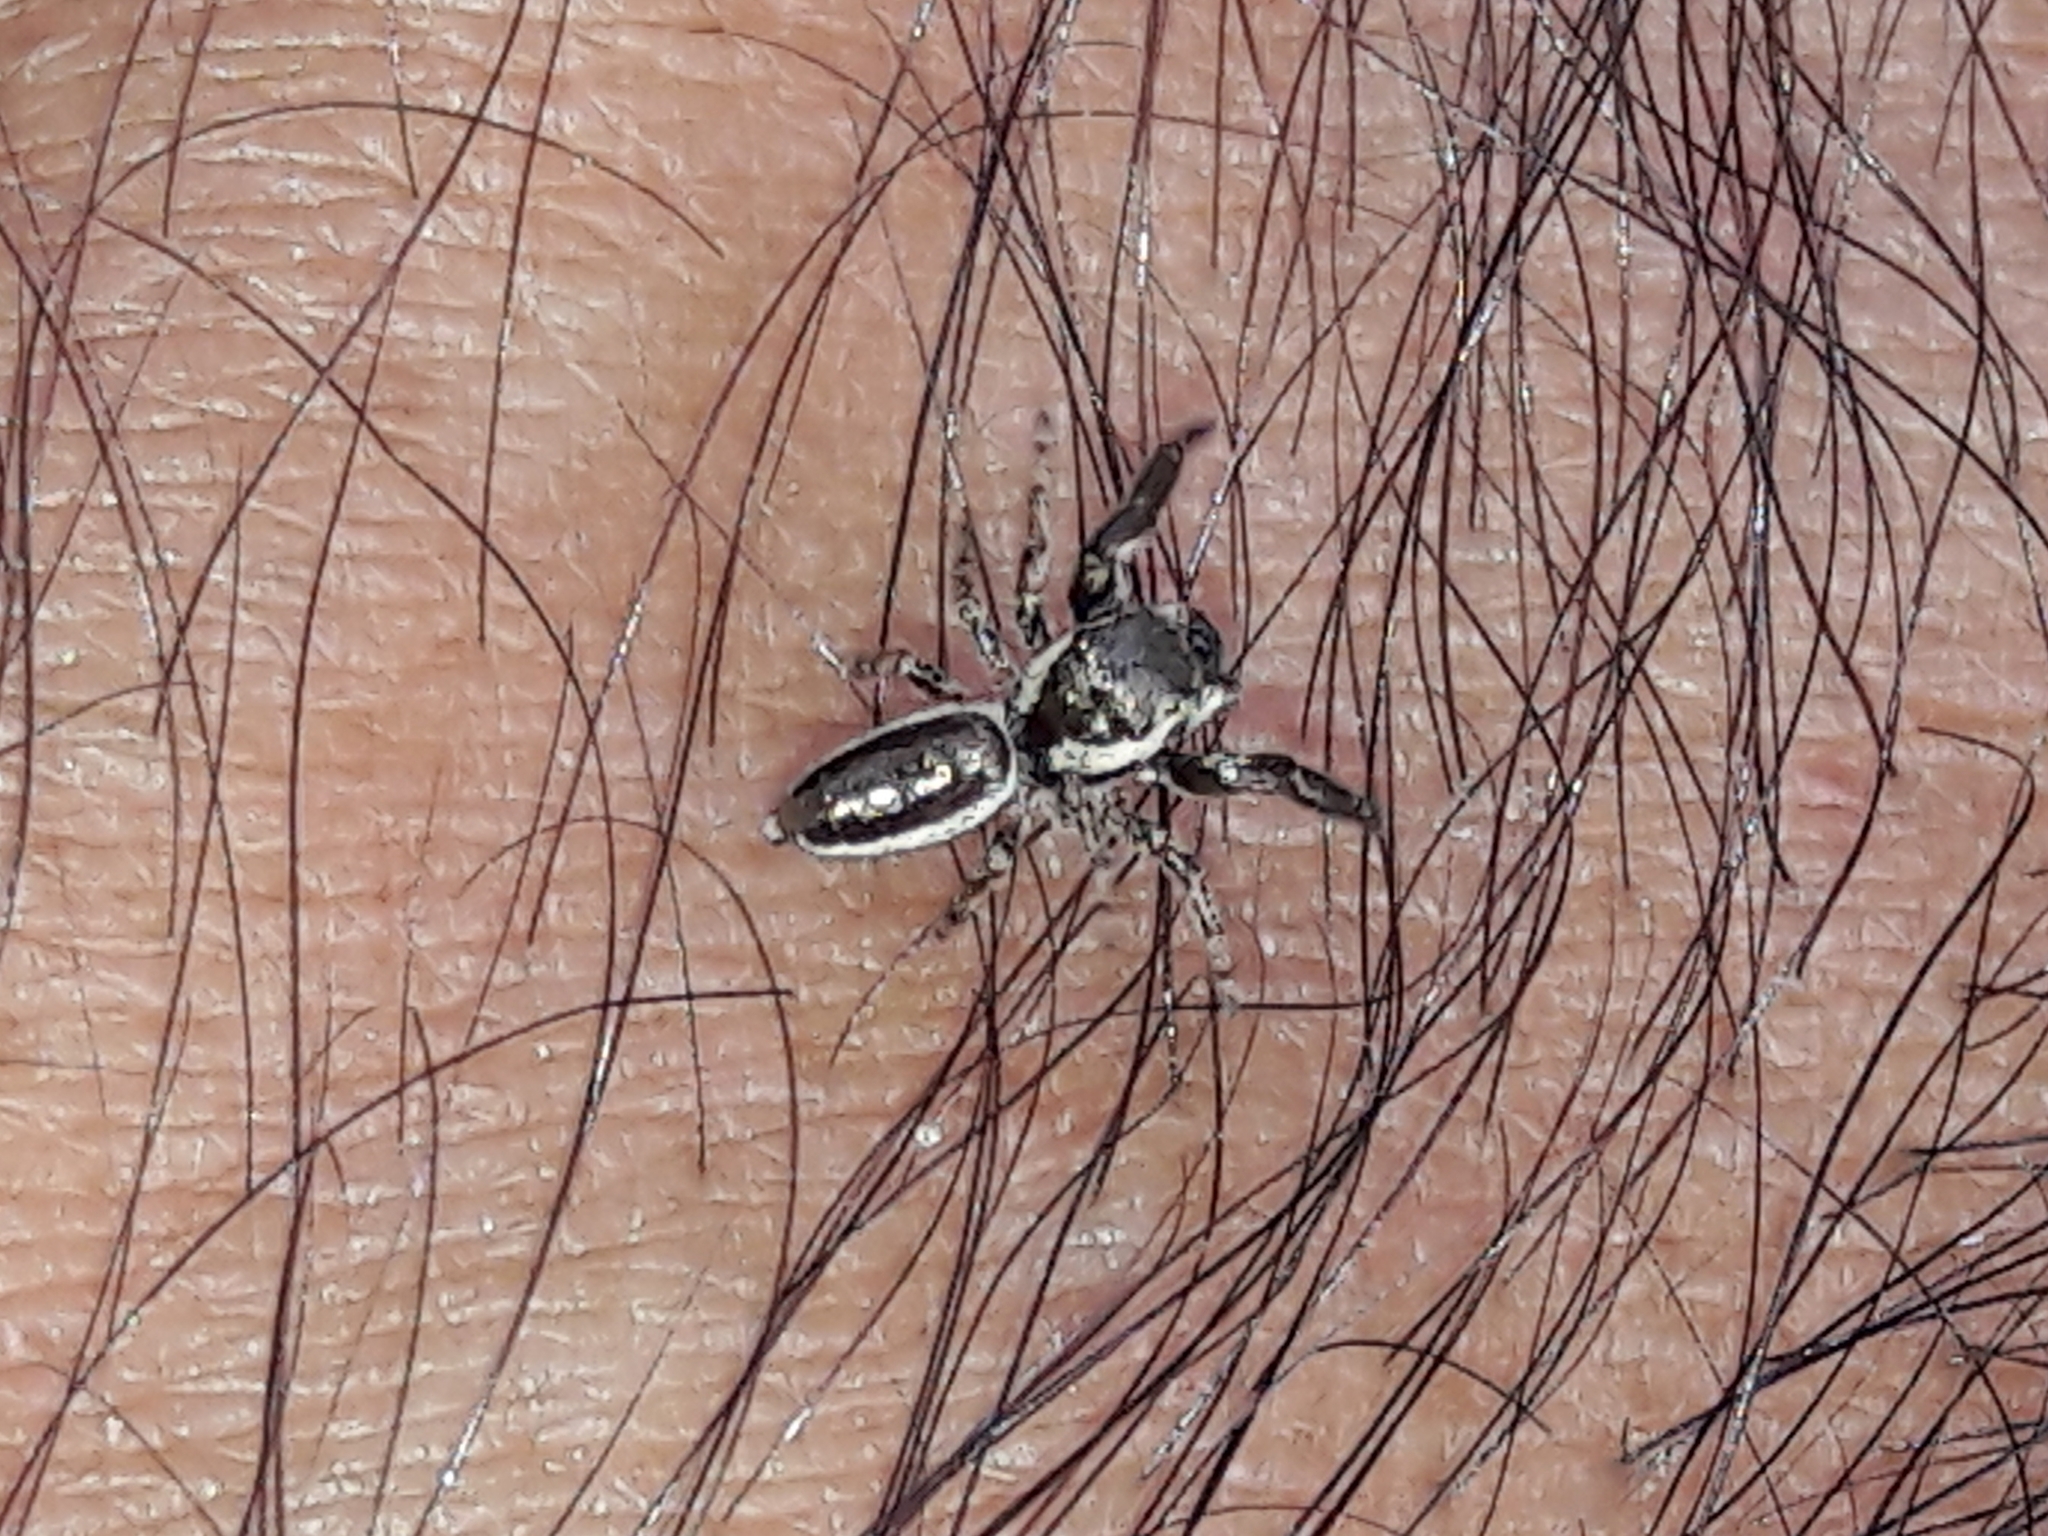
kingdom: Animalia
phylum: Arthropoda
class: Arachnida
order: Araneae
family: Salticidae
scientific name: Salticidae
